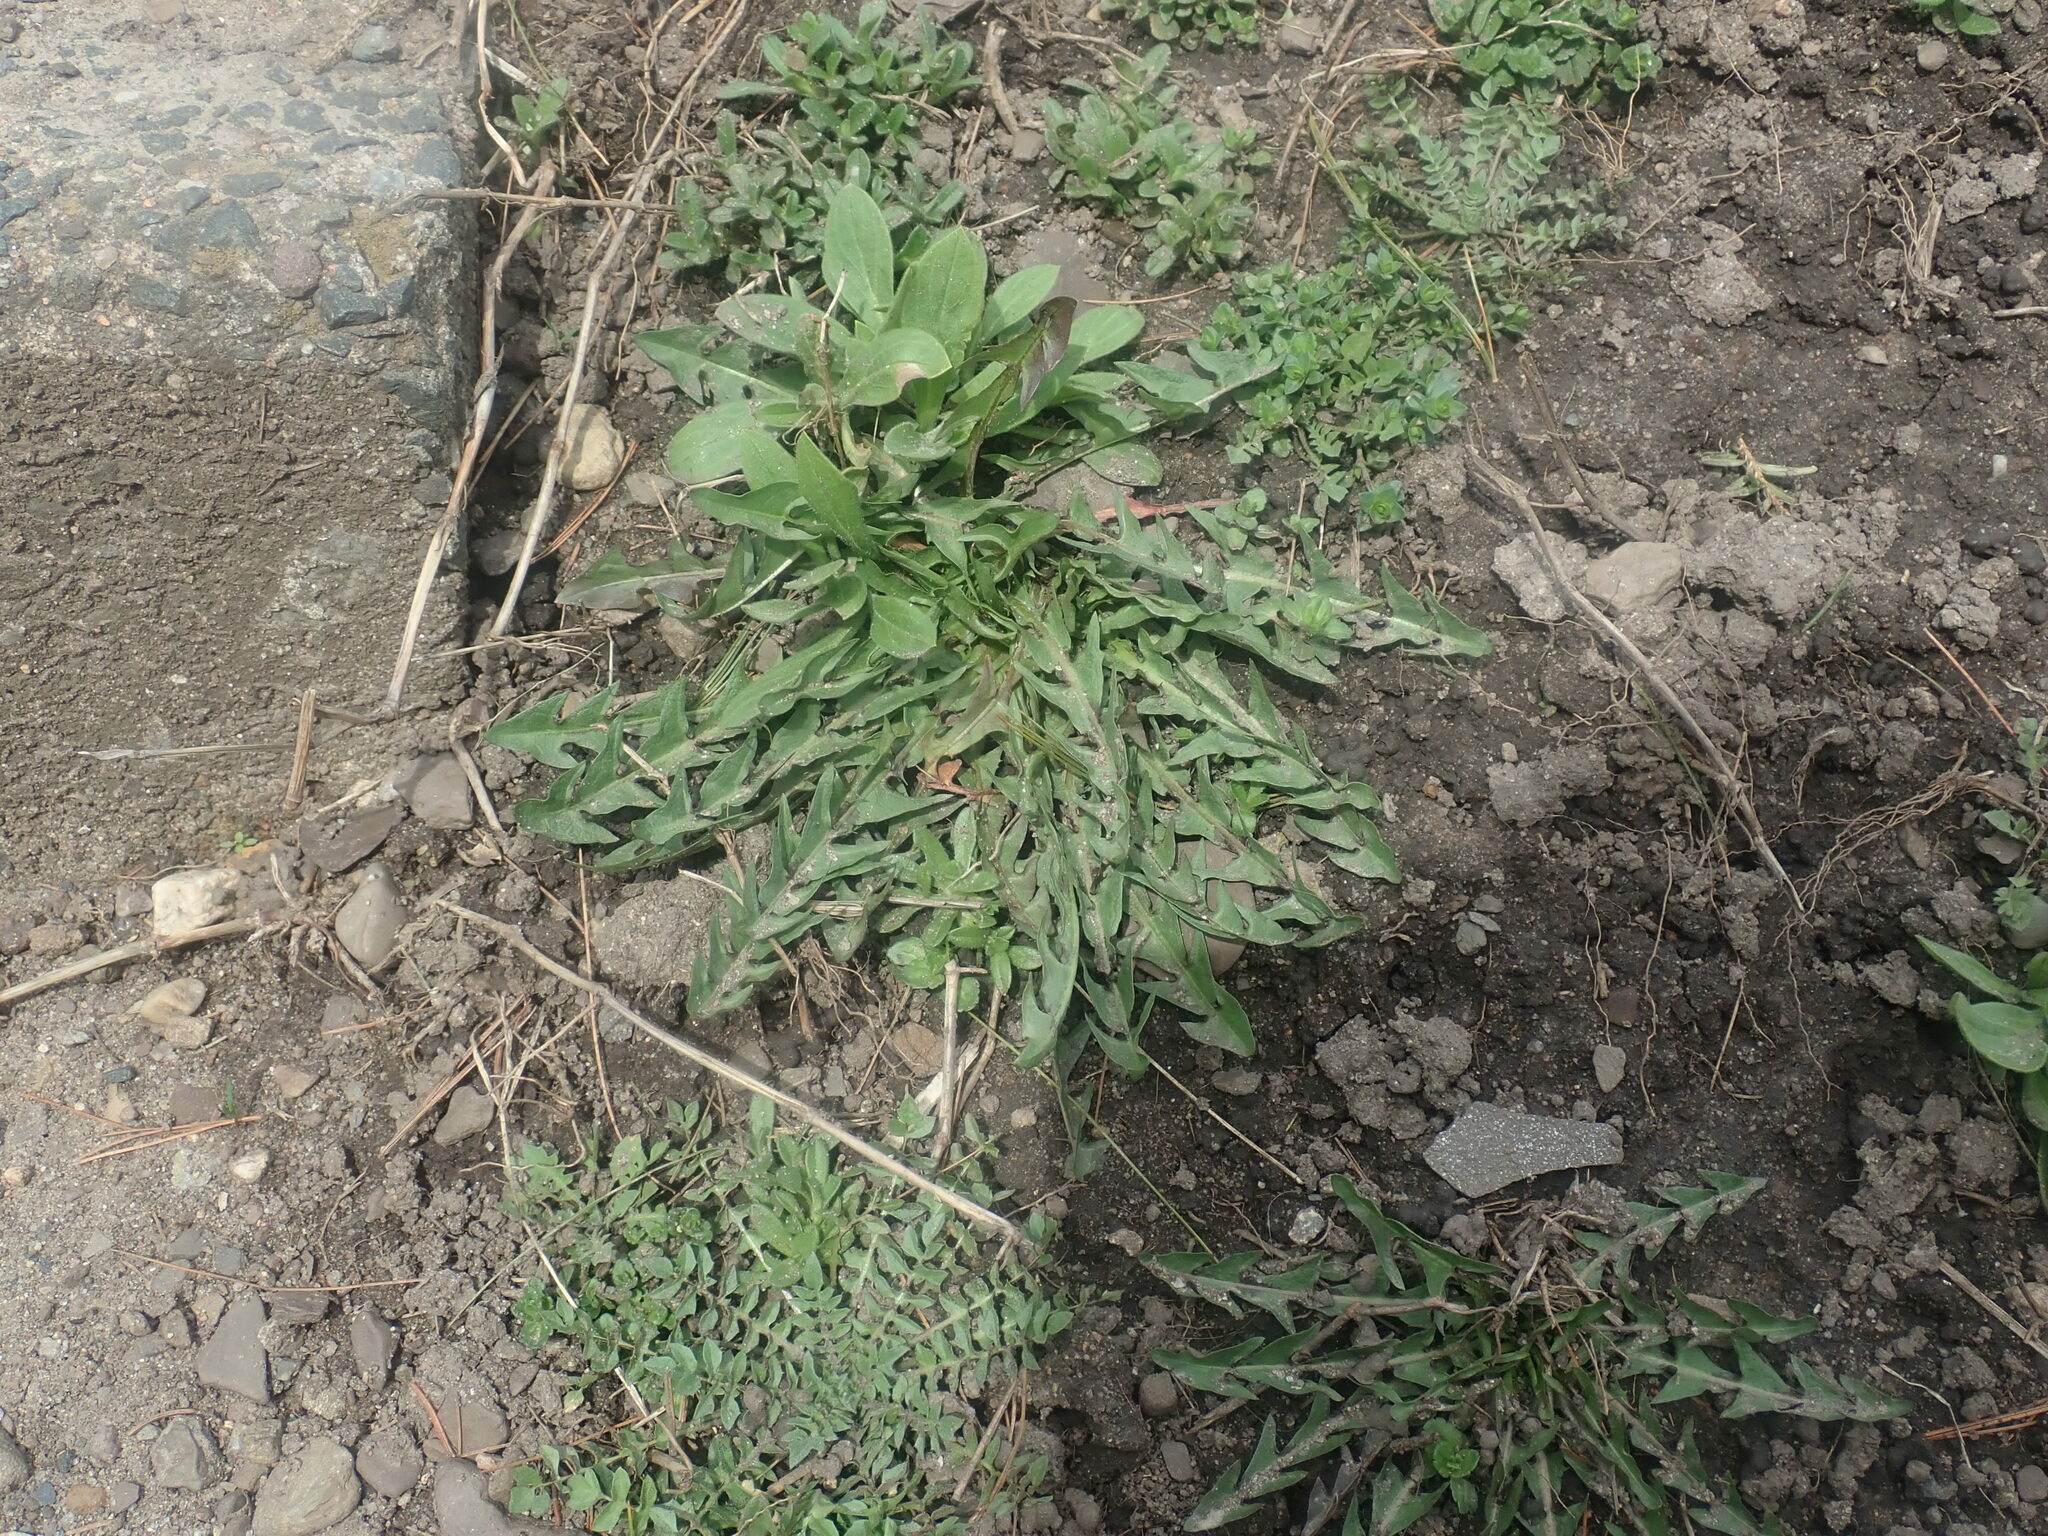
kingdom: Plantae
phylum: Tracheophyta
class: Magnoliopsida
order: Asterales
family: Asteraceae
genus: Taraxacum
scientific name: Taraxacum
